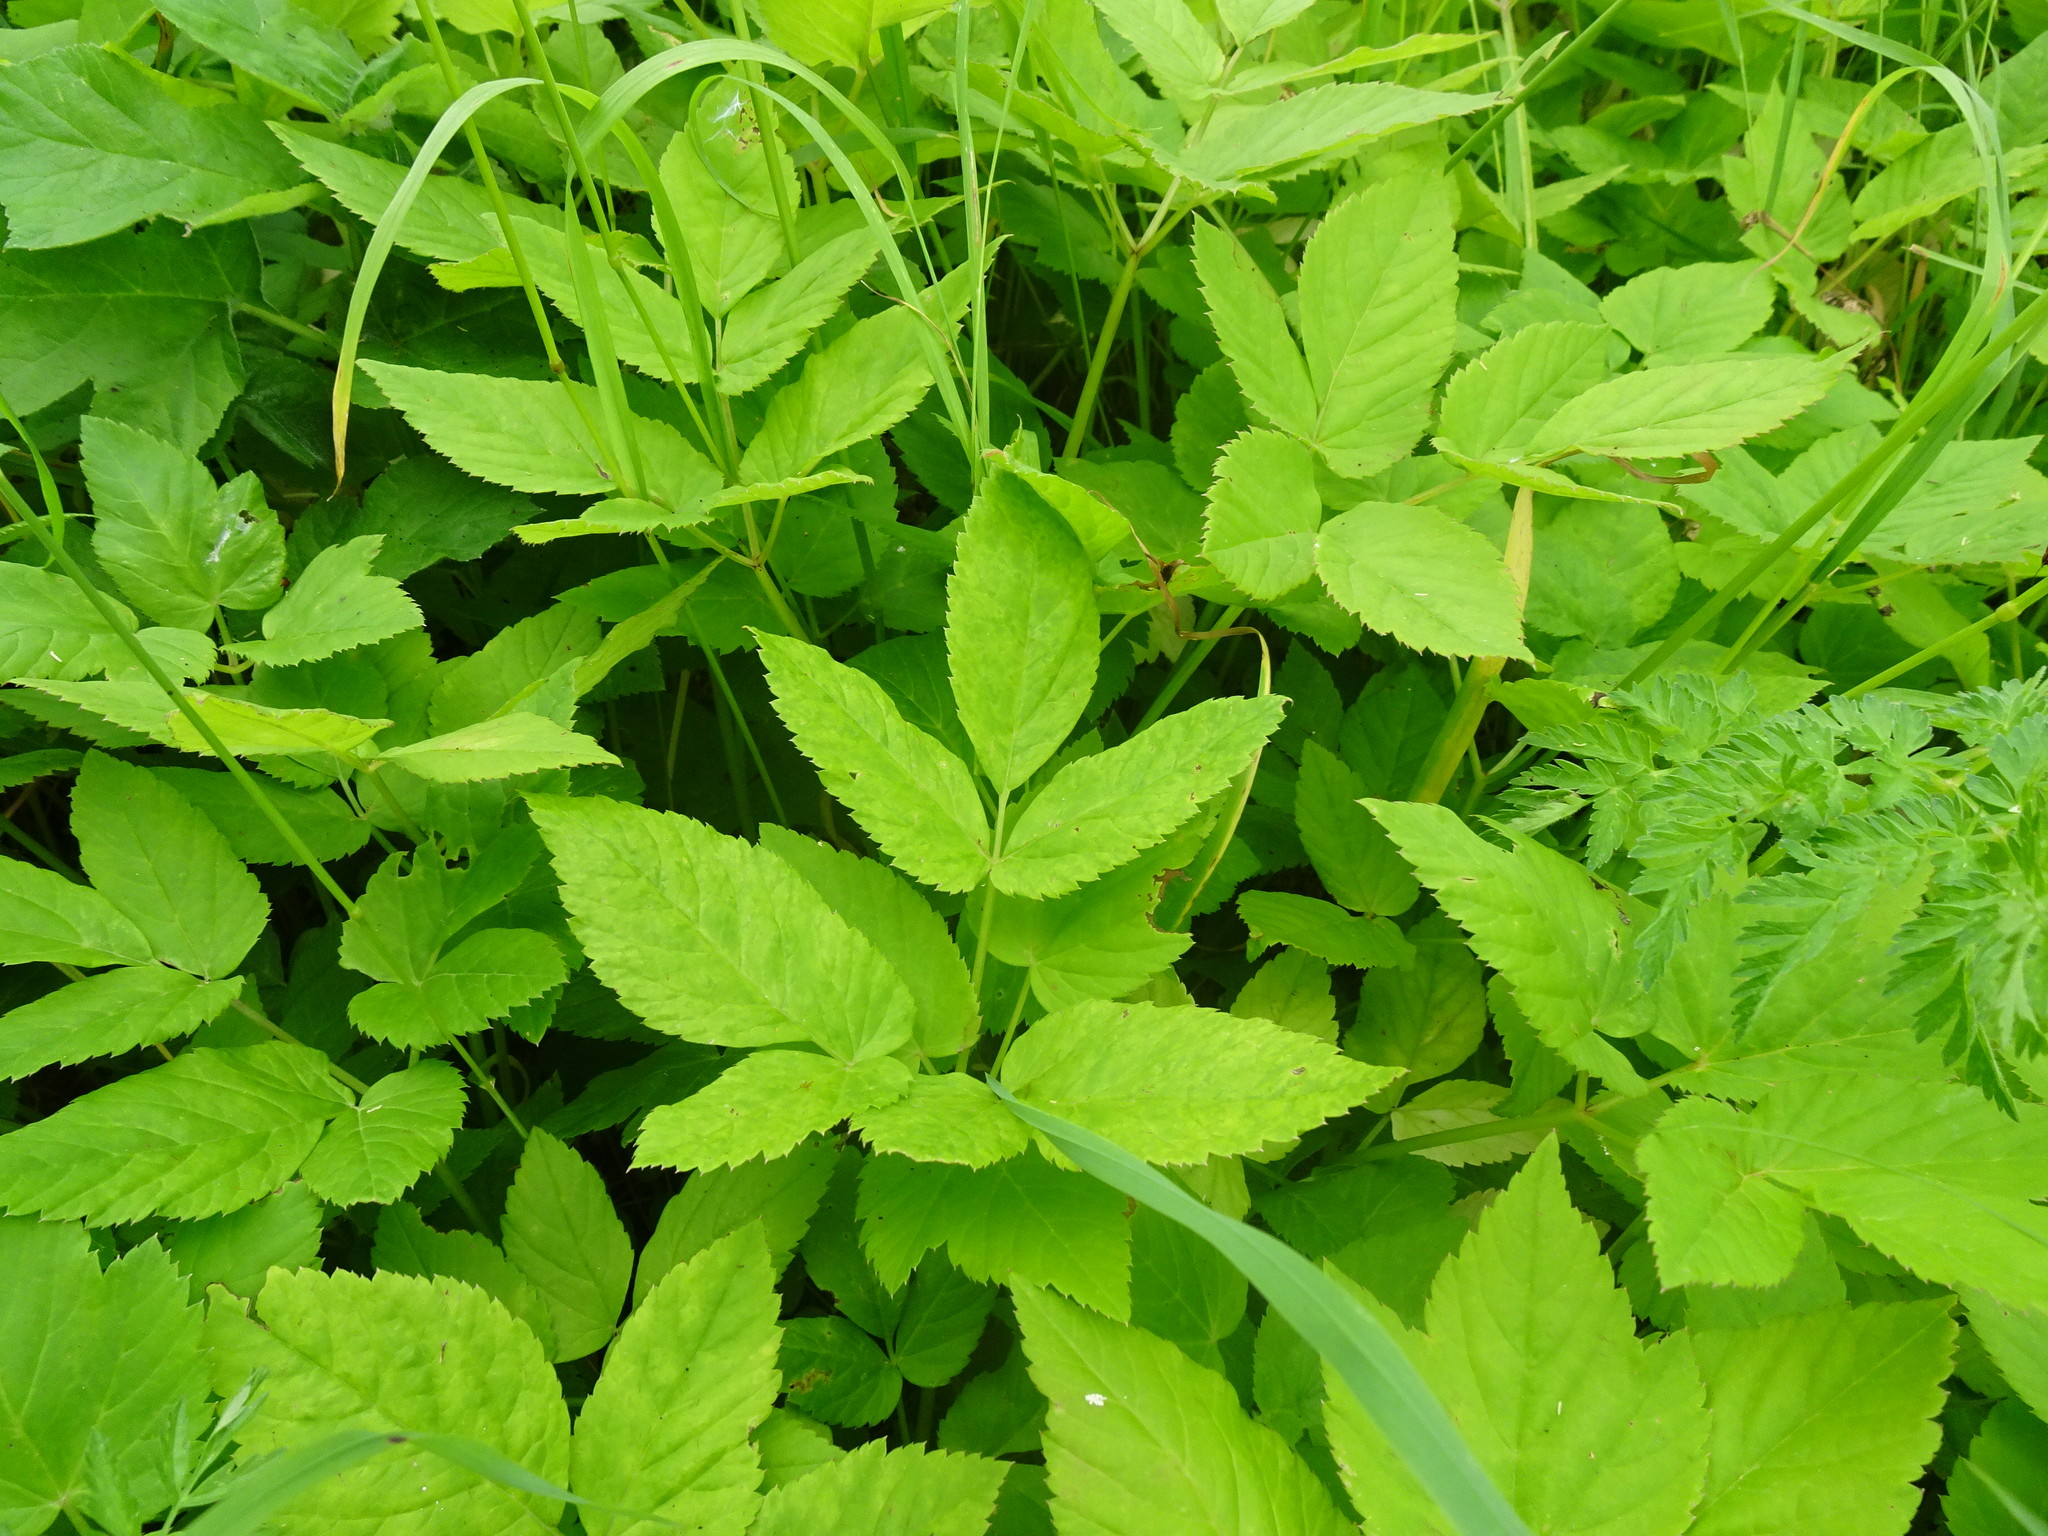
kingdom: Plantae
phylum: Tracheophyta
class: Magnoliopsida
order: Apiales
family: Apiaceae
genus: Aegopodium
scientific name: Aegopodium podagraria
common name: Ground-elder
